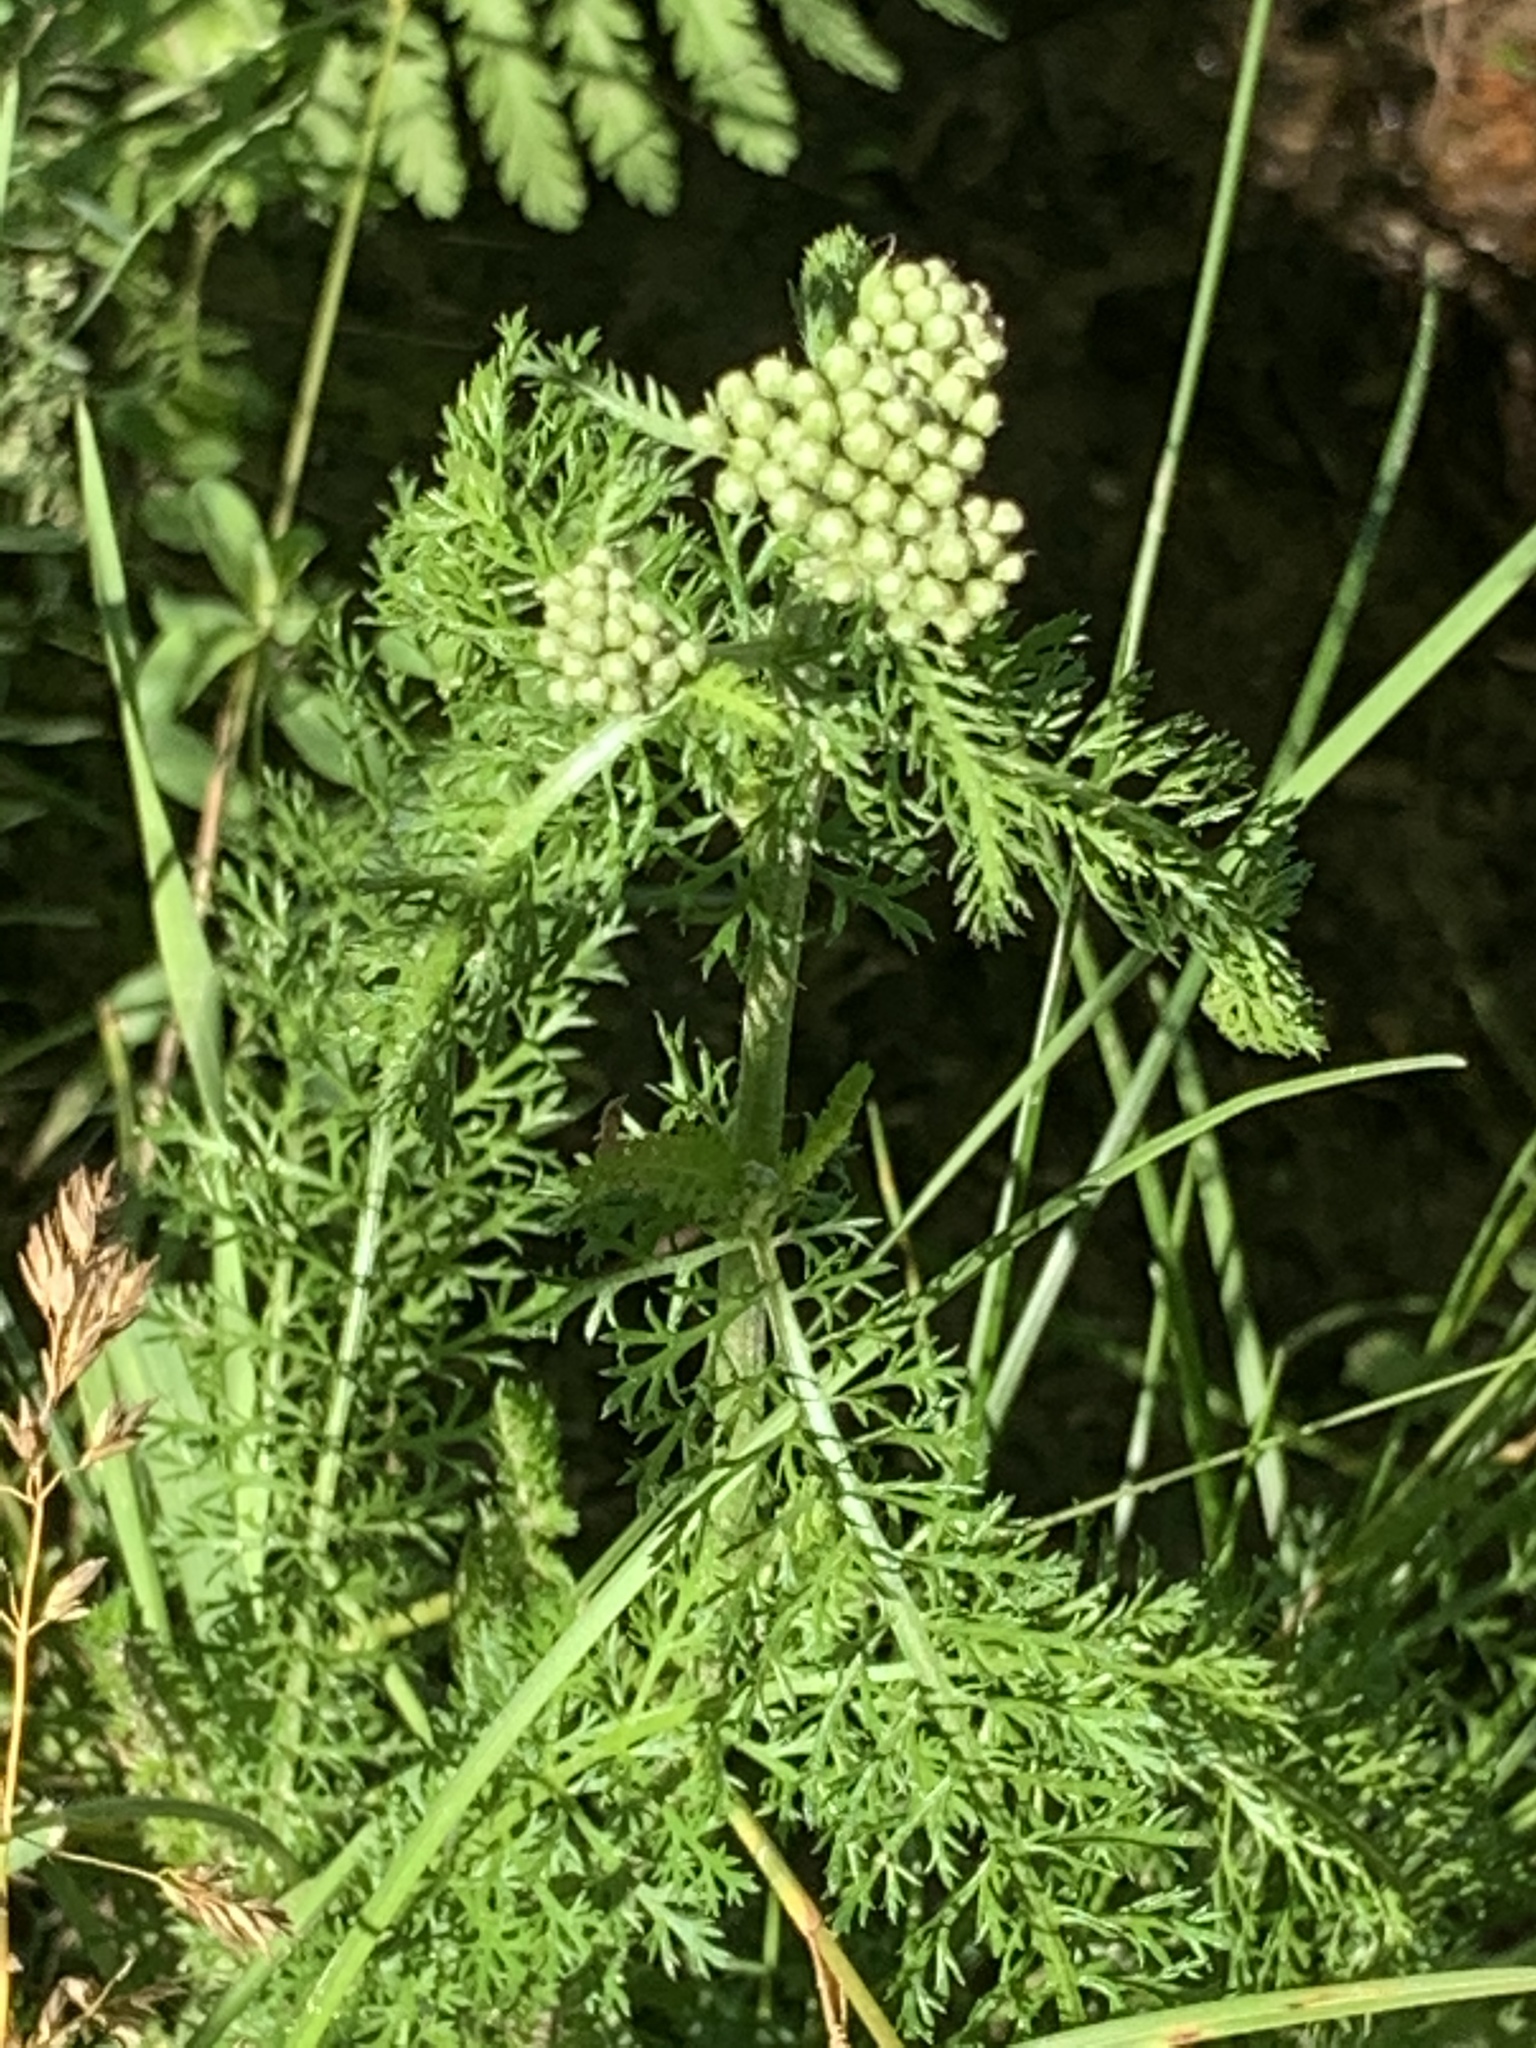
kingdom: Plantae
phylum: Tracheophyta
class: Magnoliopsida
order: Asterales
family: Asteraceae
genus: Achillea
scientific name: Achillea millefolium
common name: Yarrow
